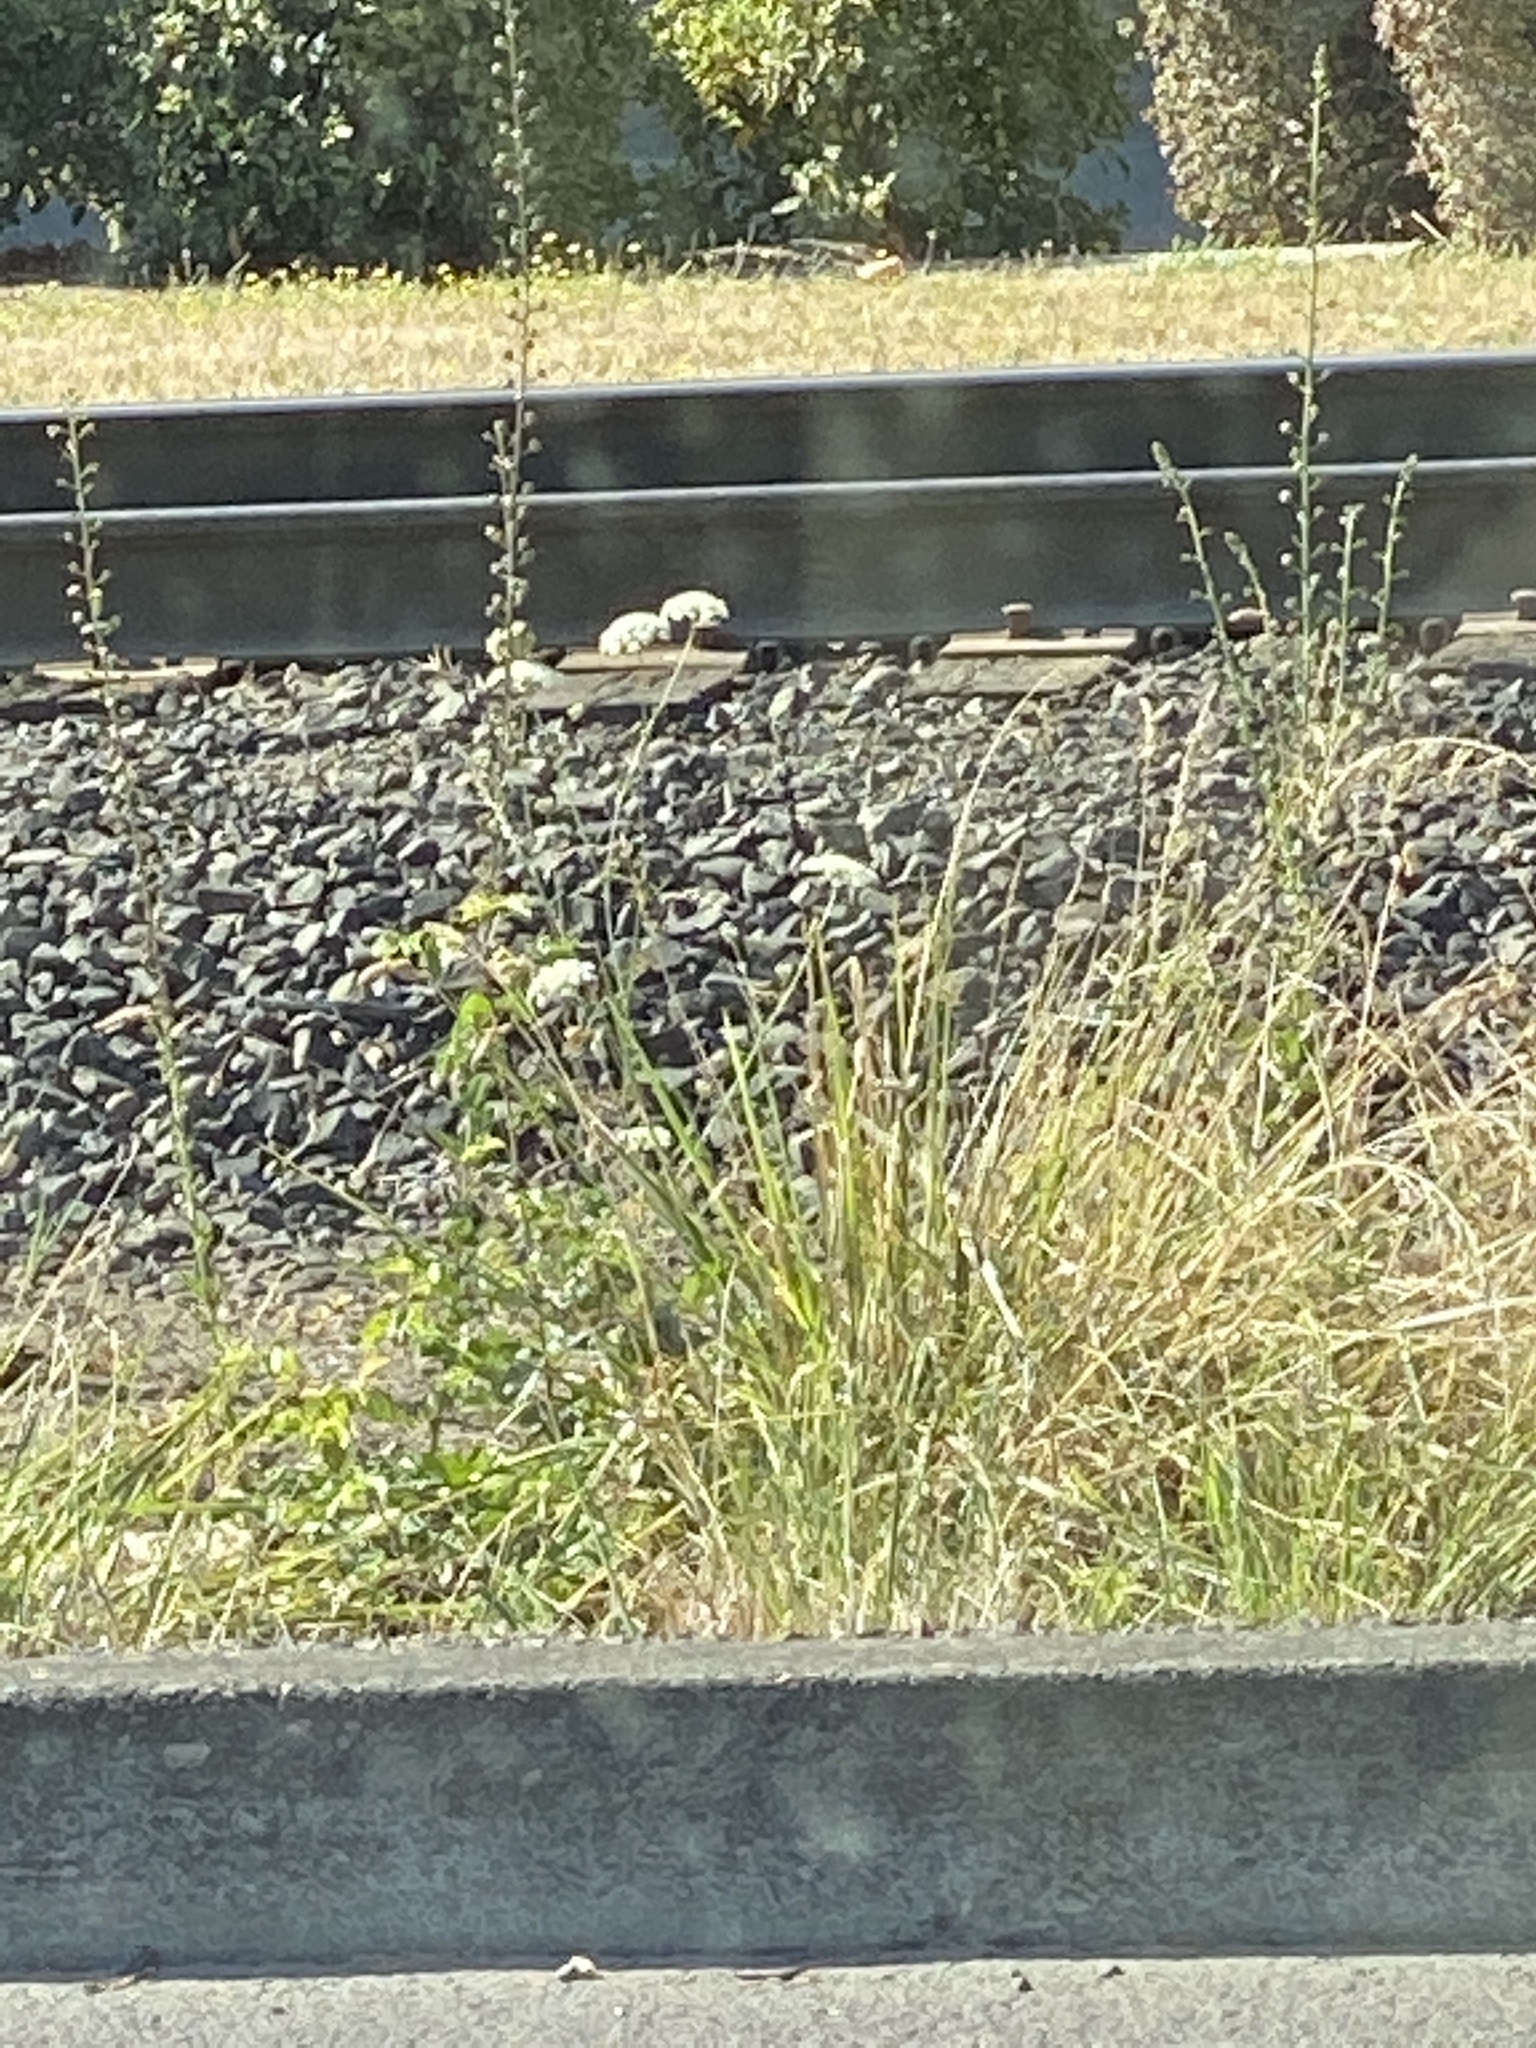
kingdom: Plantae
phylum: Tracheophyta
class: Magnoliopsida
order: Apiales
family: Apiaceae
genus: Daucus
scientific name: Daucus carota
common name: Wild carrot
